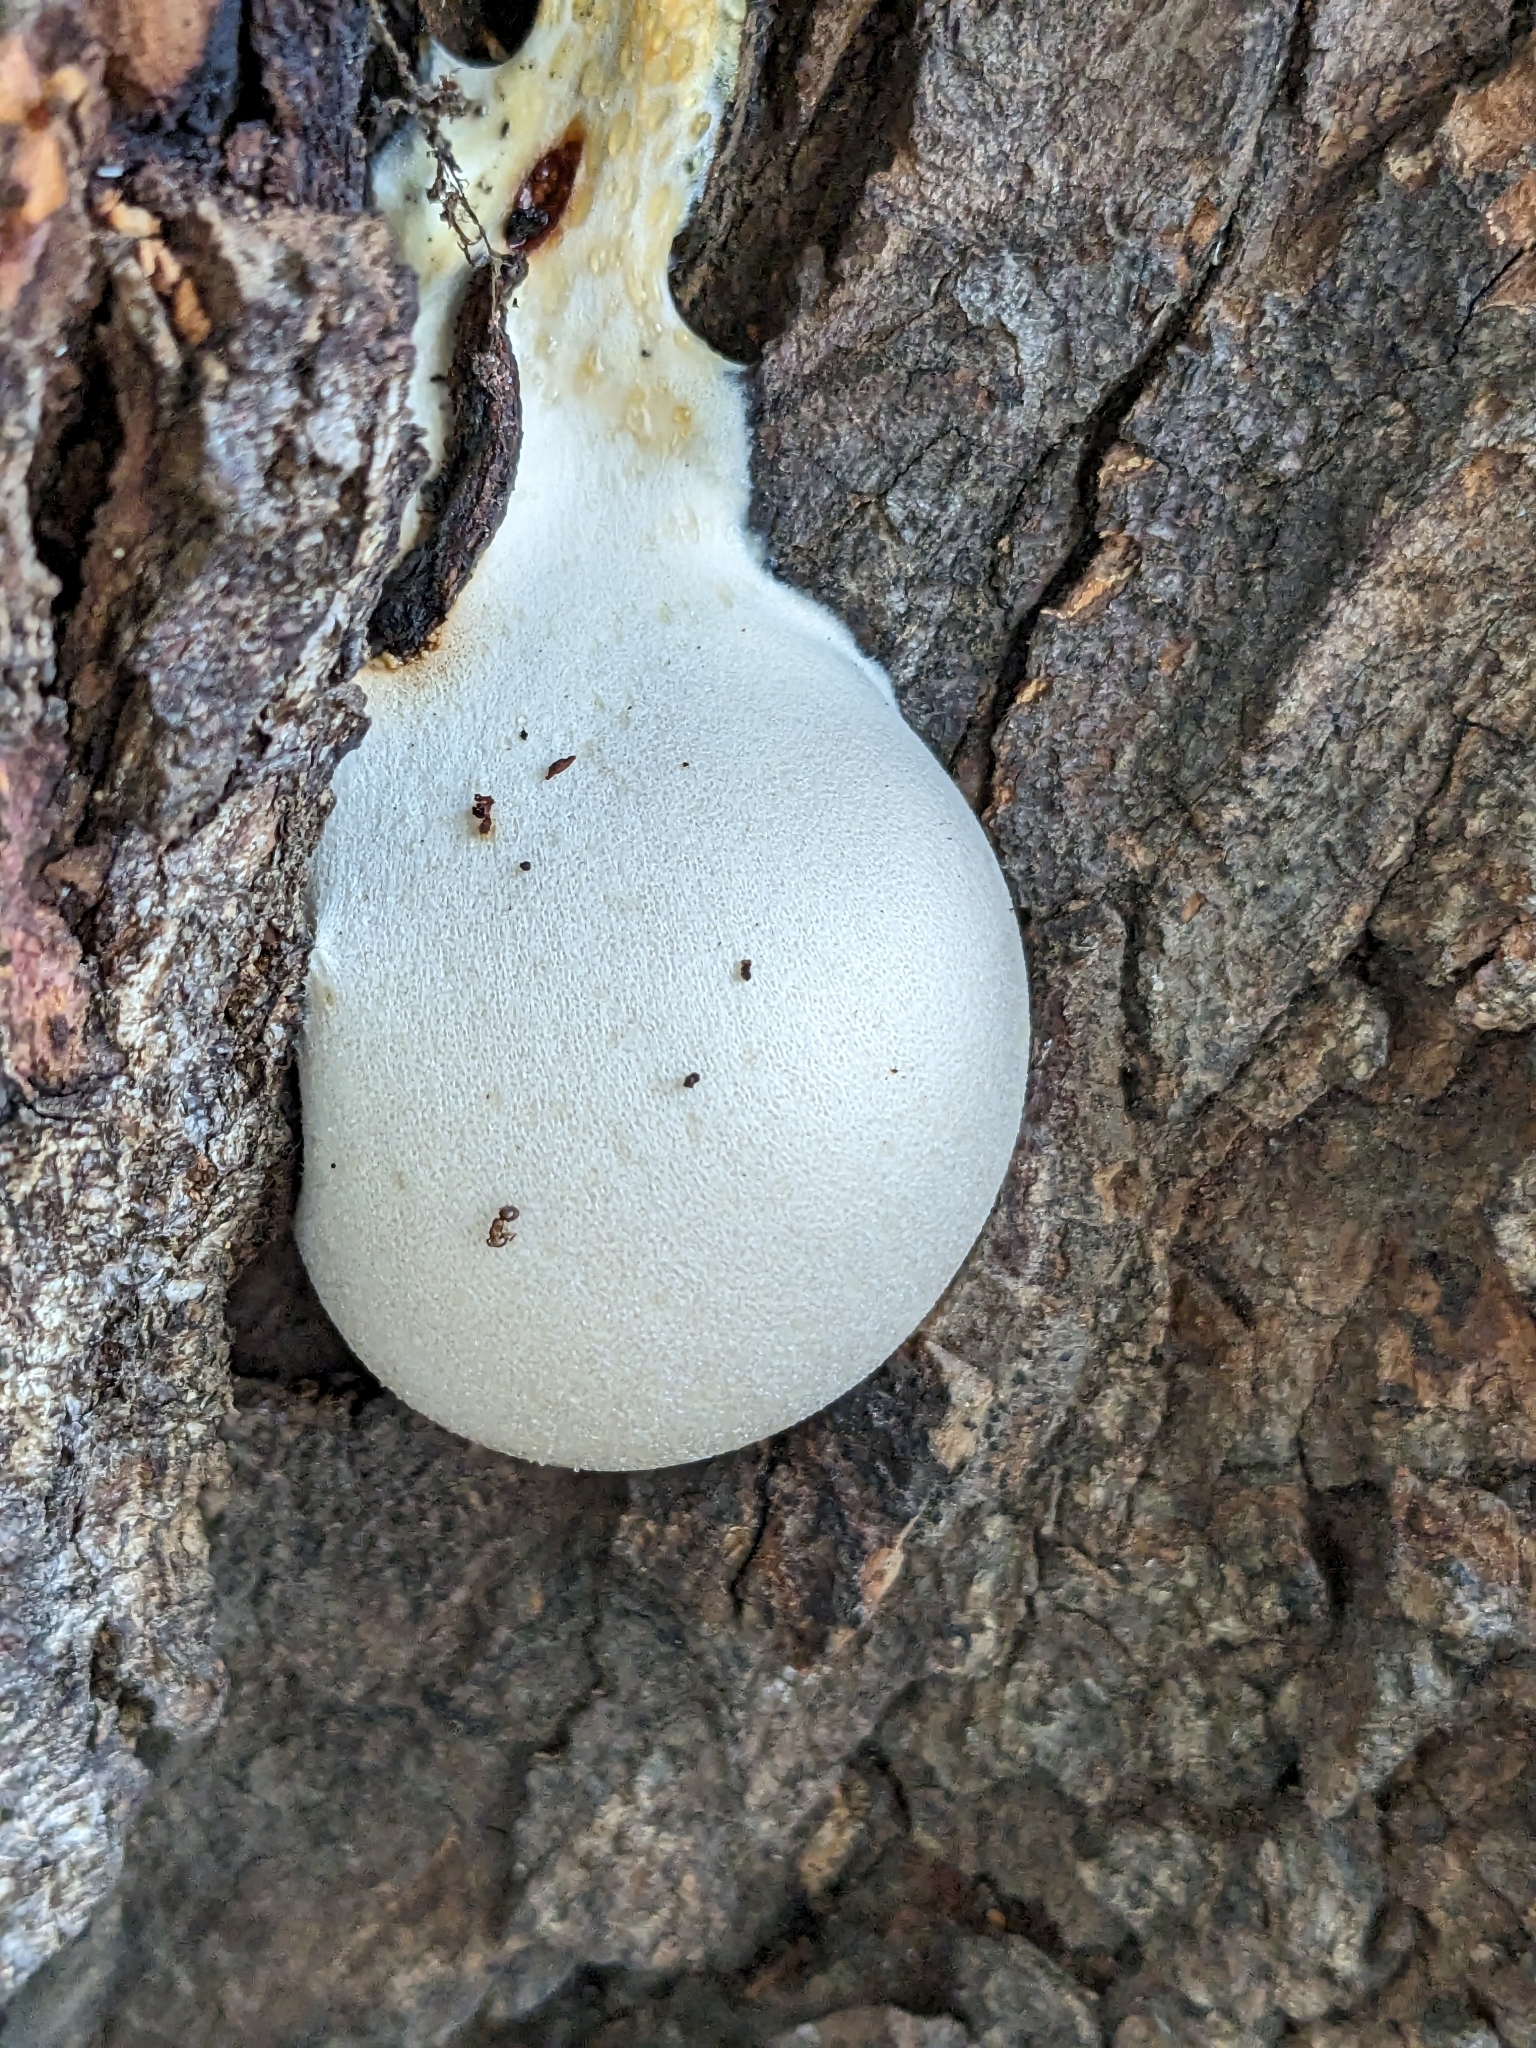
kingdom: Protozoa
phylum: Mycetozoa
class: Myxomycetes
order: Cribrariales
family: Tubiferaceae
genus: Lycogala
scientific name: Lycogala flavofuscum
